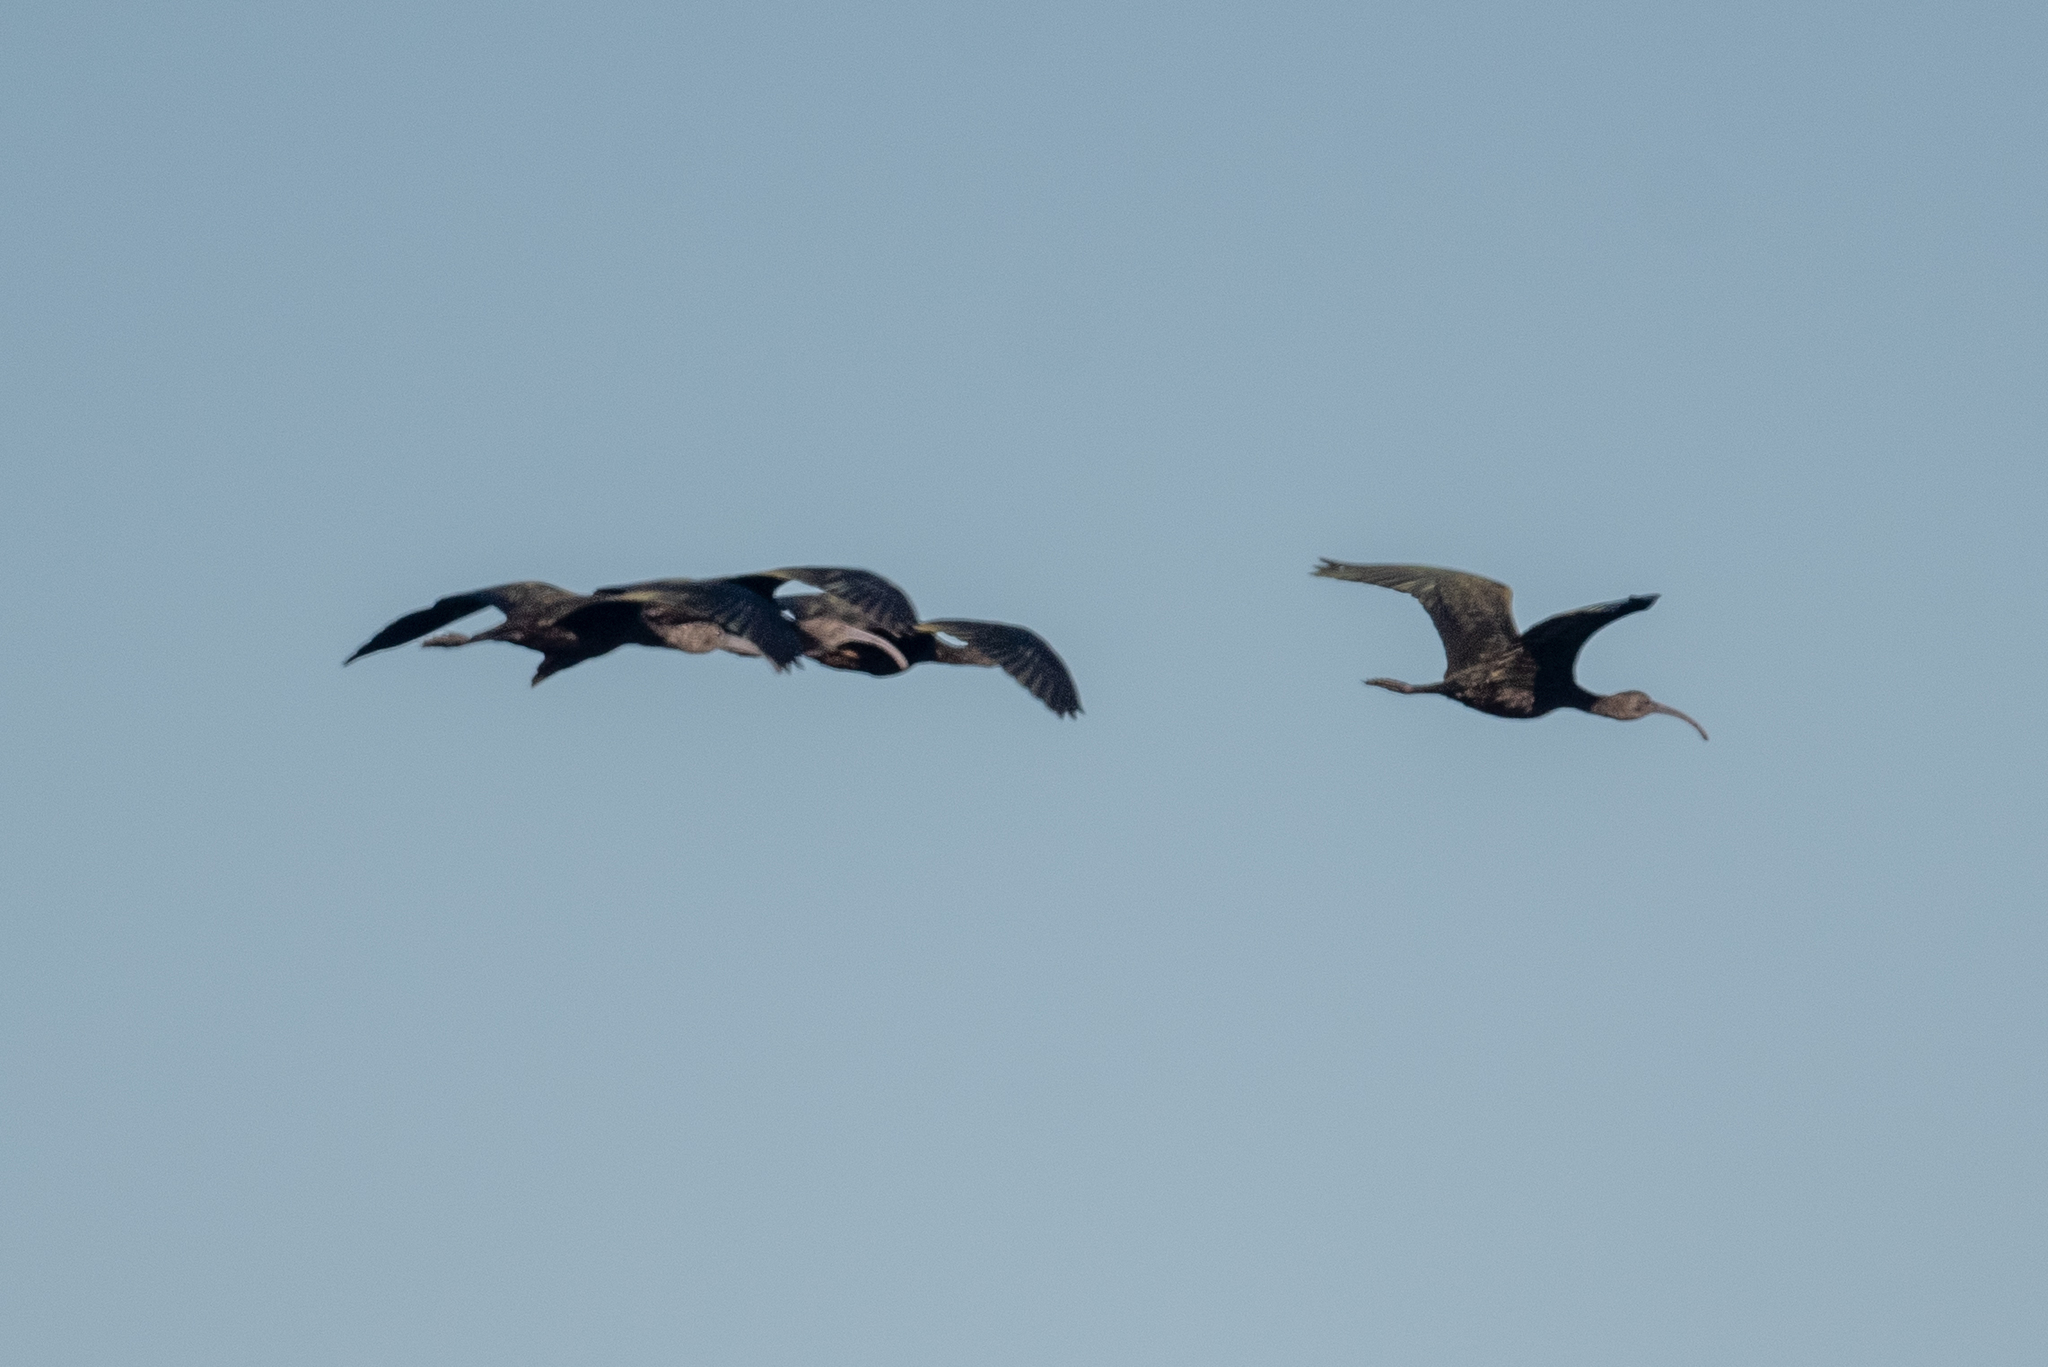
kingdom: Animalia
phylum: Chordata
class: Aves
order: Pelecaniformes
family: Threskiornithidae
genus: Plegadis
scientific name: Plegadis chihi
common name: White-faced ibis
